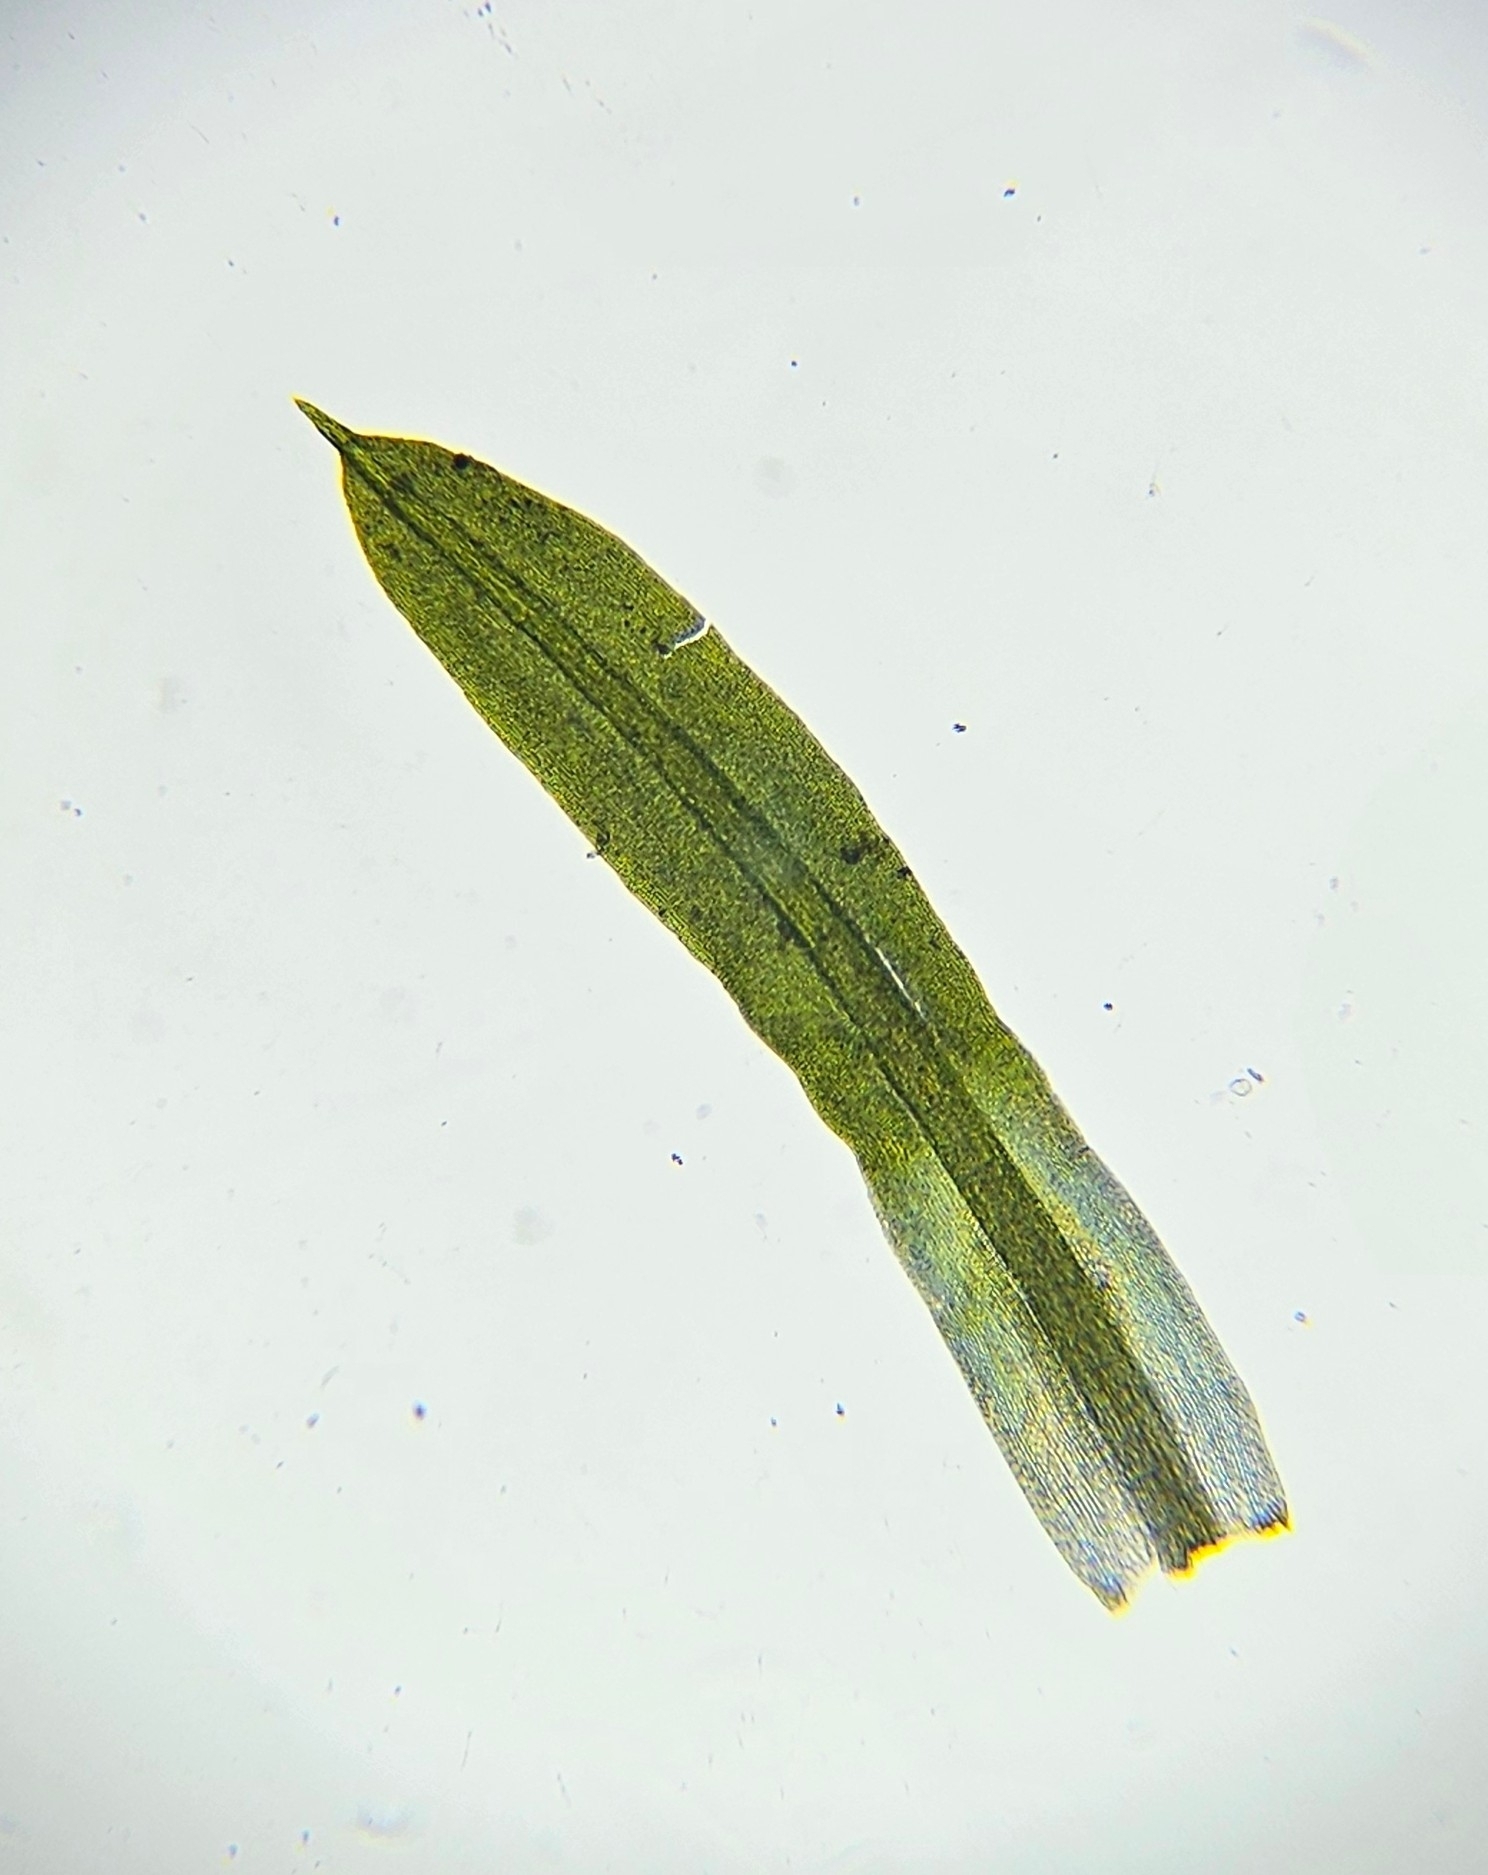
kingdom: Plantae
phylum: Bryophyta
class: Bryopsida
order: Pottiales
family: Pottiaceae
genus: Trichostomum
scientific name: Trichostomum brachydontium
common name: Variable crisp-moss
